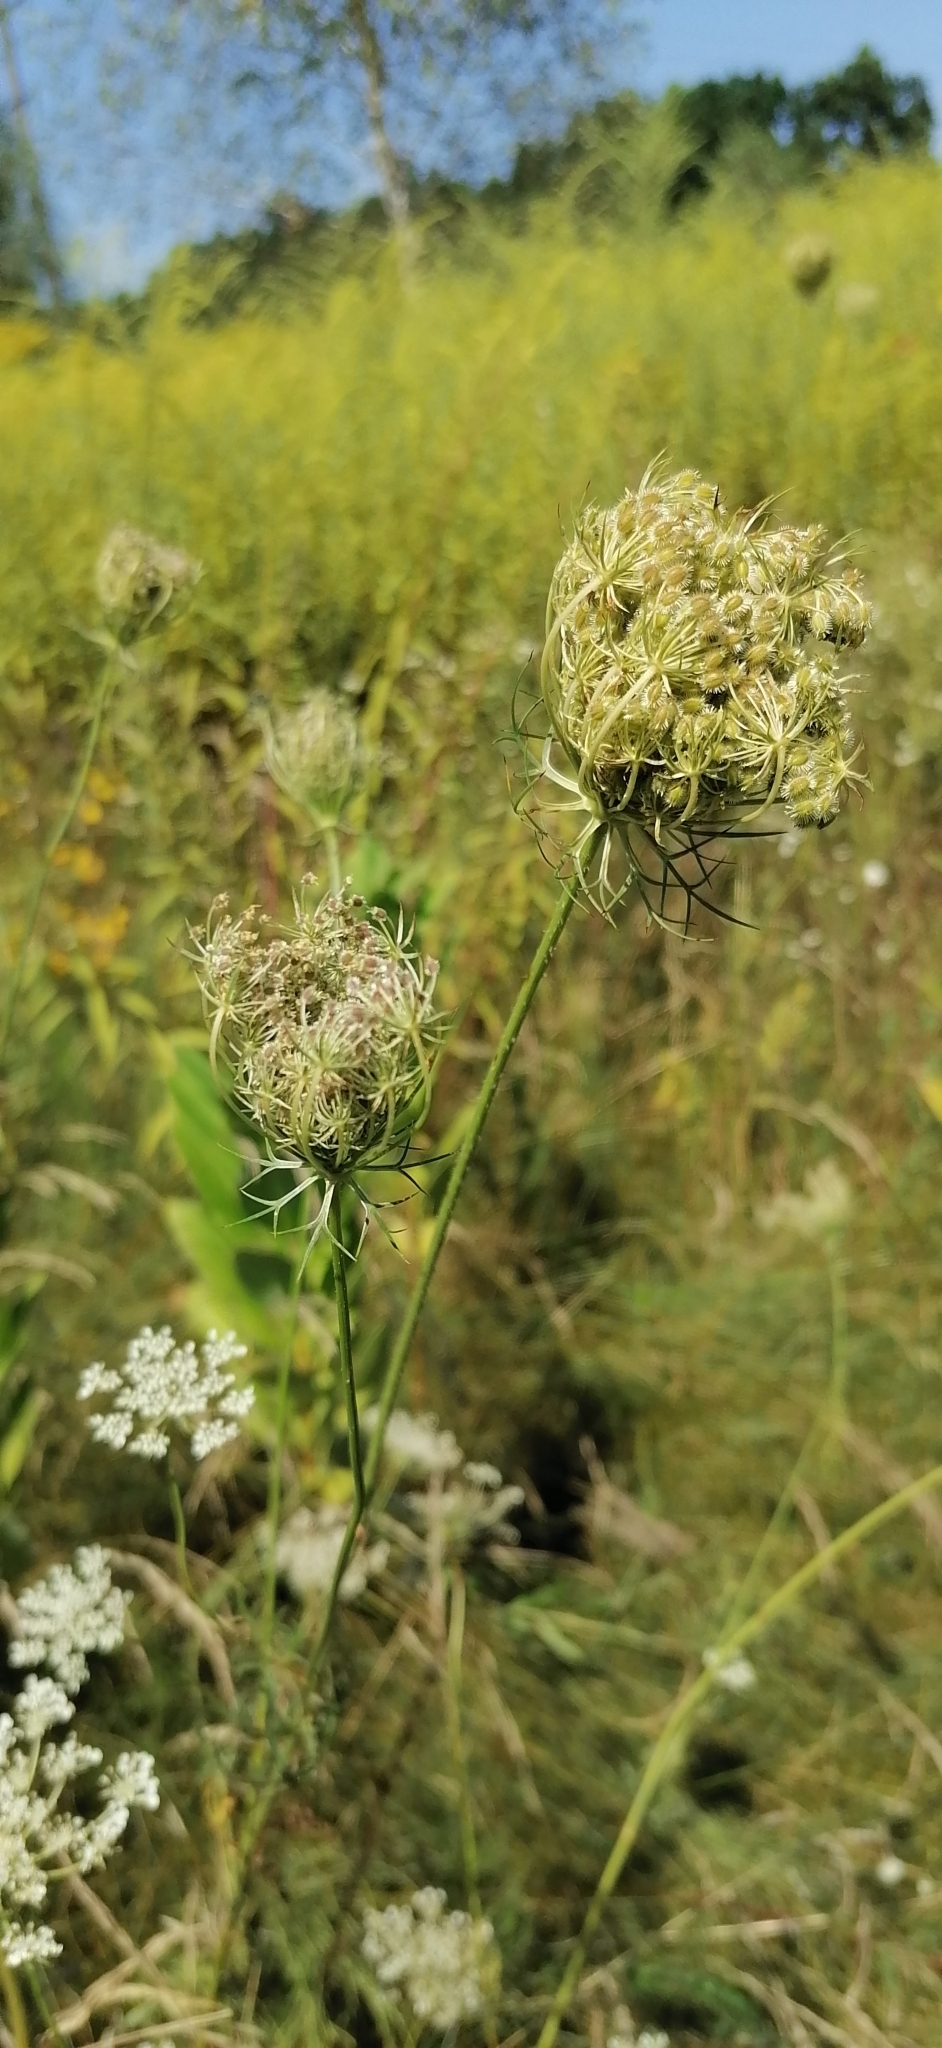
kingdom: Plantae
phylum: Tracheophyta
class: Magnoliopsida
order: Apiales
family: Apiaceae
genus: Daucus
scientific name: Daucus carota
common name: Wild carrot
